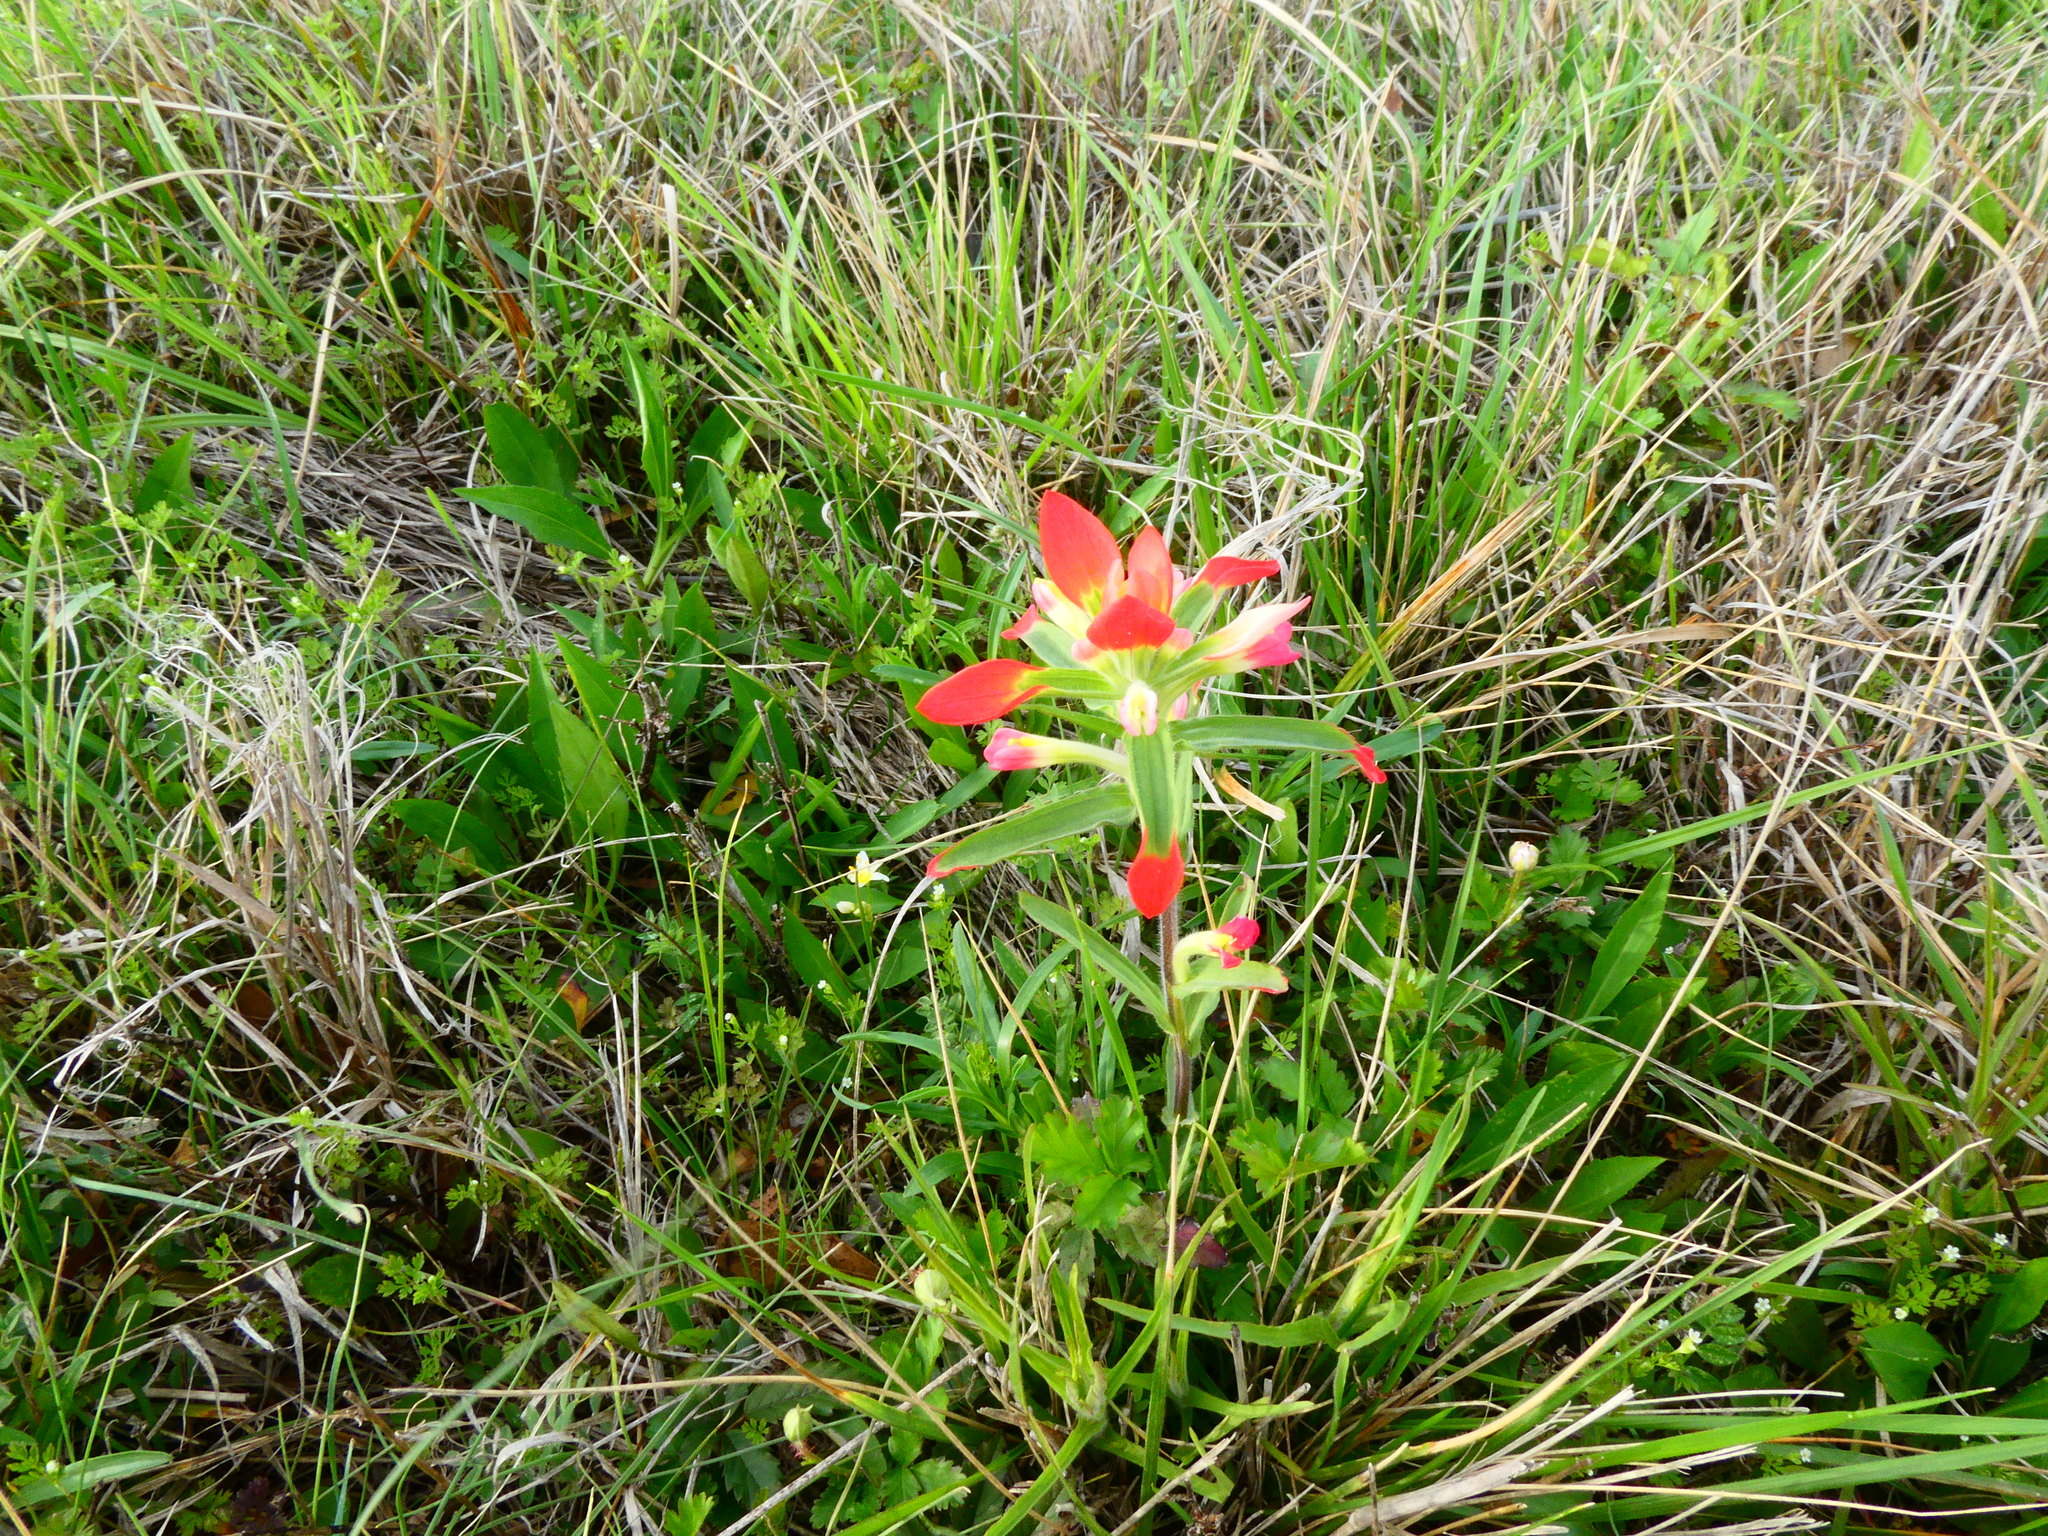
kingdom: Plantae
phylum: Tracheophyta
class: Magnoliopsida
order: Lamiales
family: Orobanchaceae
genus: Castilleja
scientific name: Castilleja indivisa
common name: Texas paintbrush
